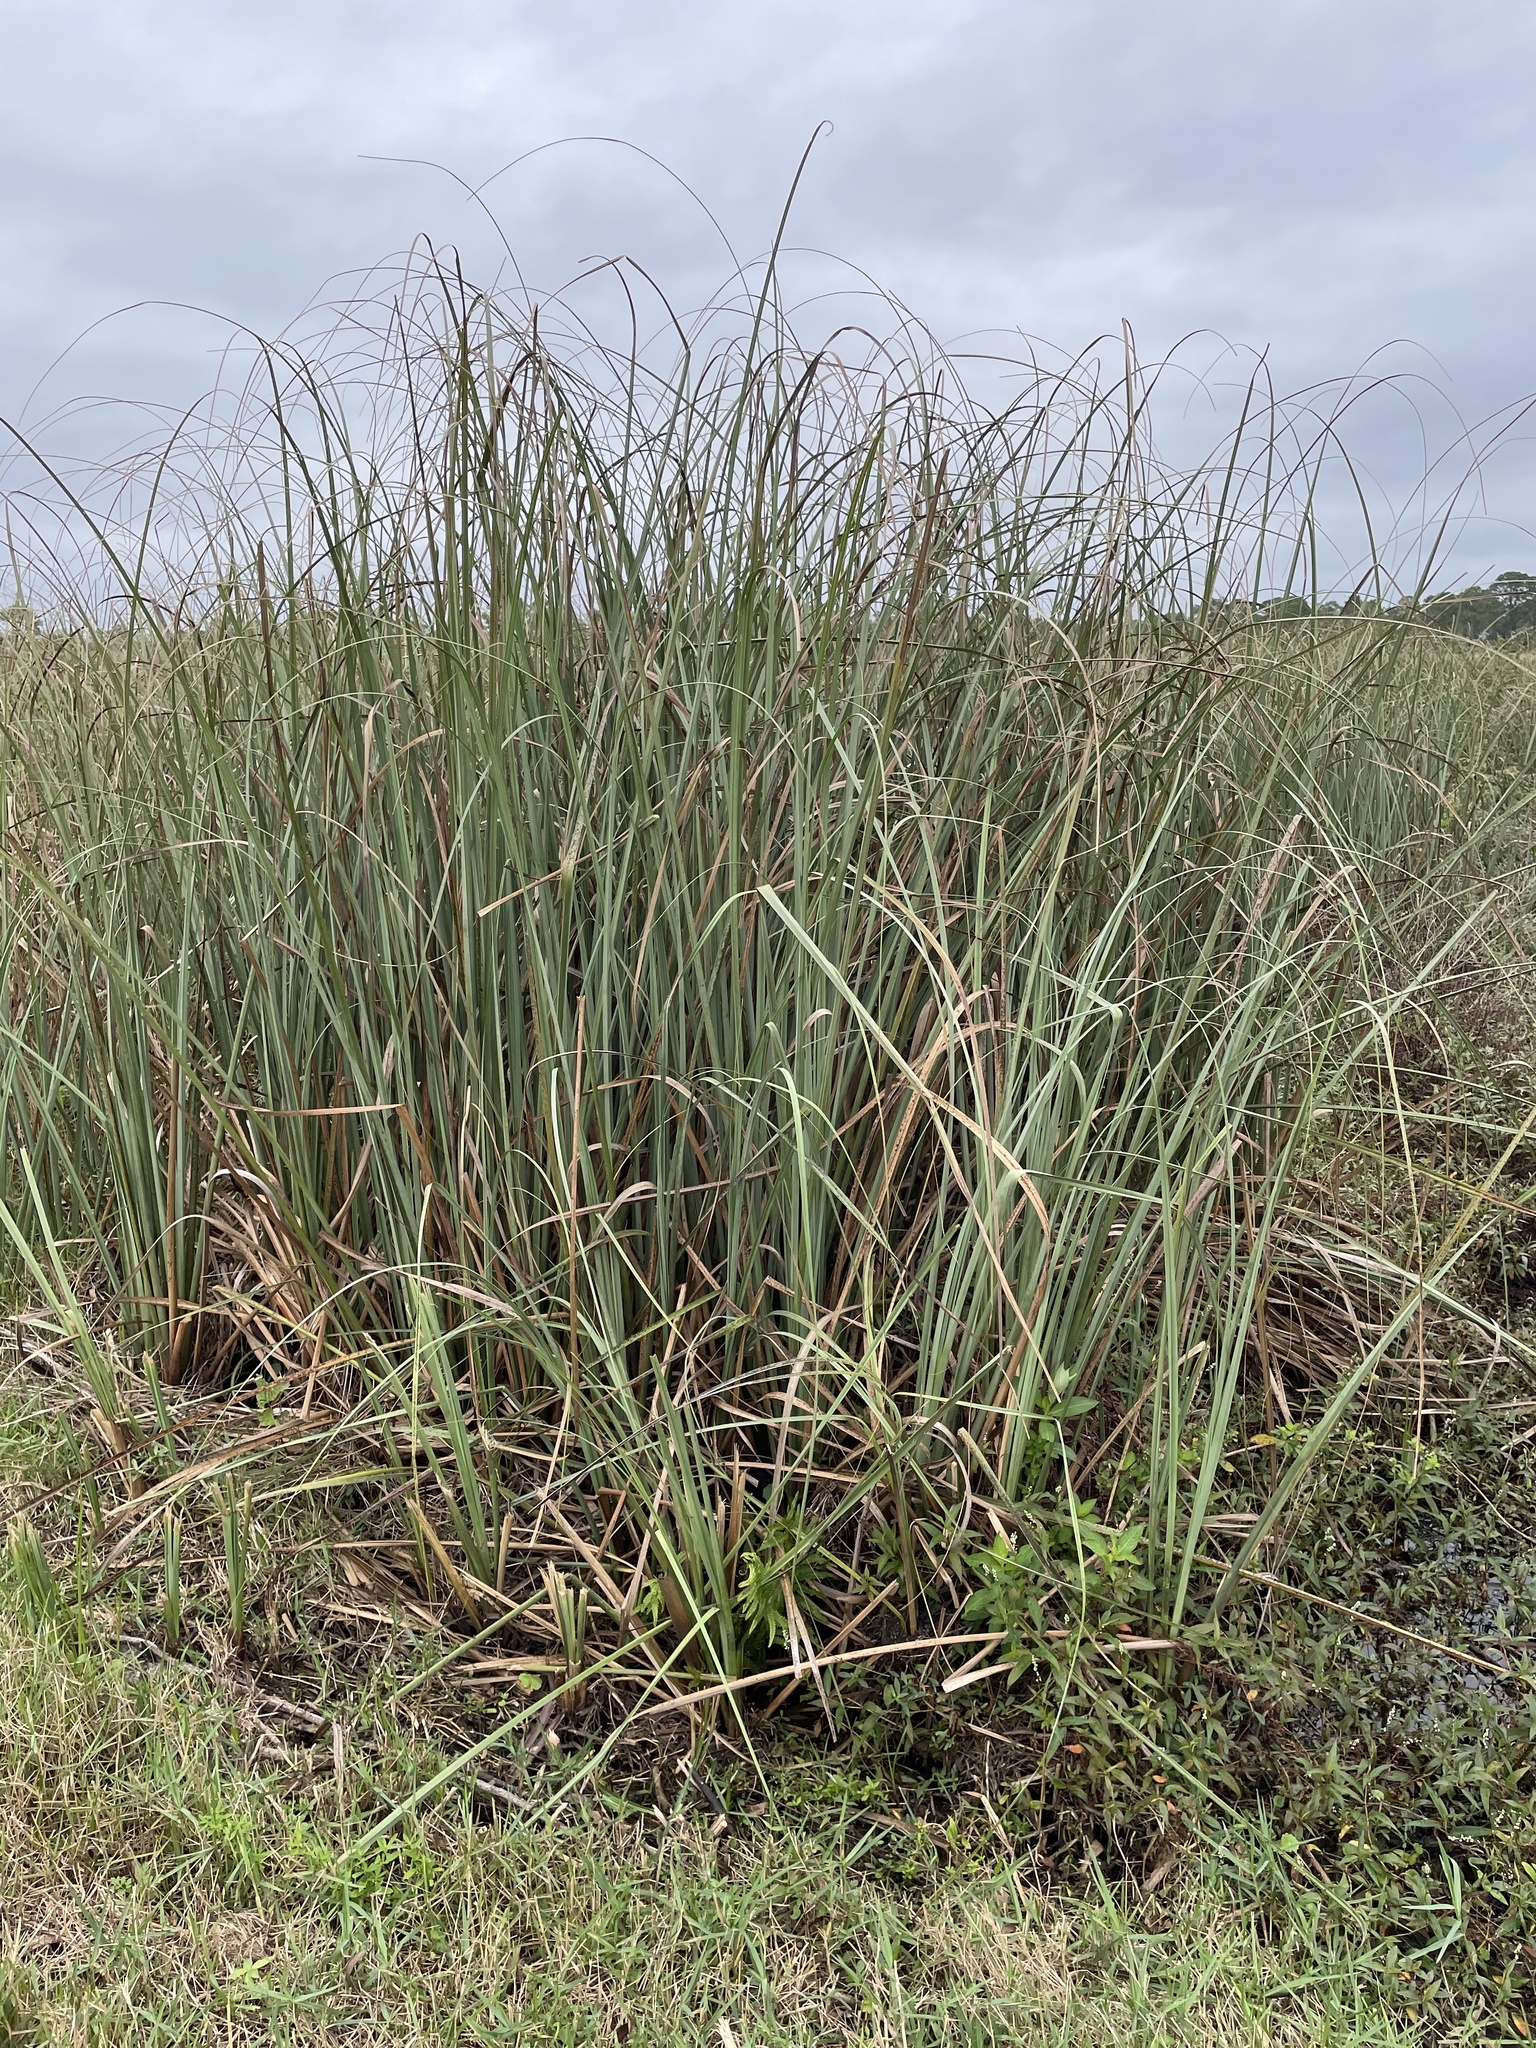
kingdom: Plantae
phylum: Tracheophyta
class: Liliopsida
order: Poales
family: Cyperaceae
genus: Cladium
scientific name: Cladium mariscus
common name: Great fen-sedge
